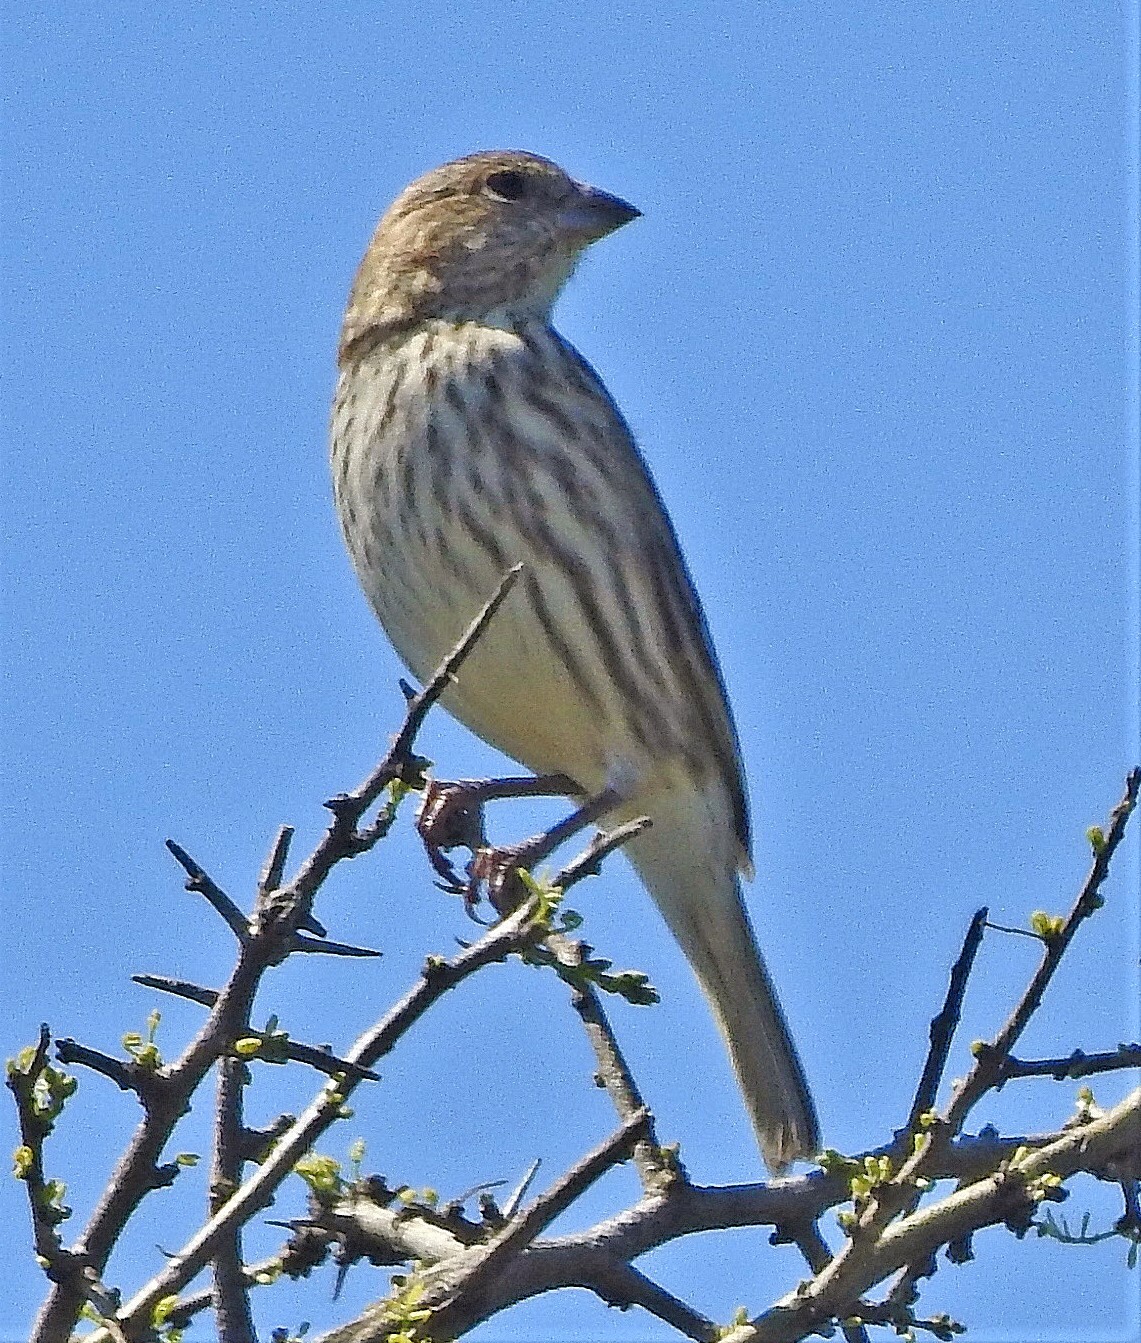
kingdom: Animalia
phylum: Chordata
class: Aves
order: Passeriformes
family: Thraupidae
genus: Sicalis
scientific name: Sicalis flaveola
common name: Saffron finch
